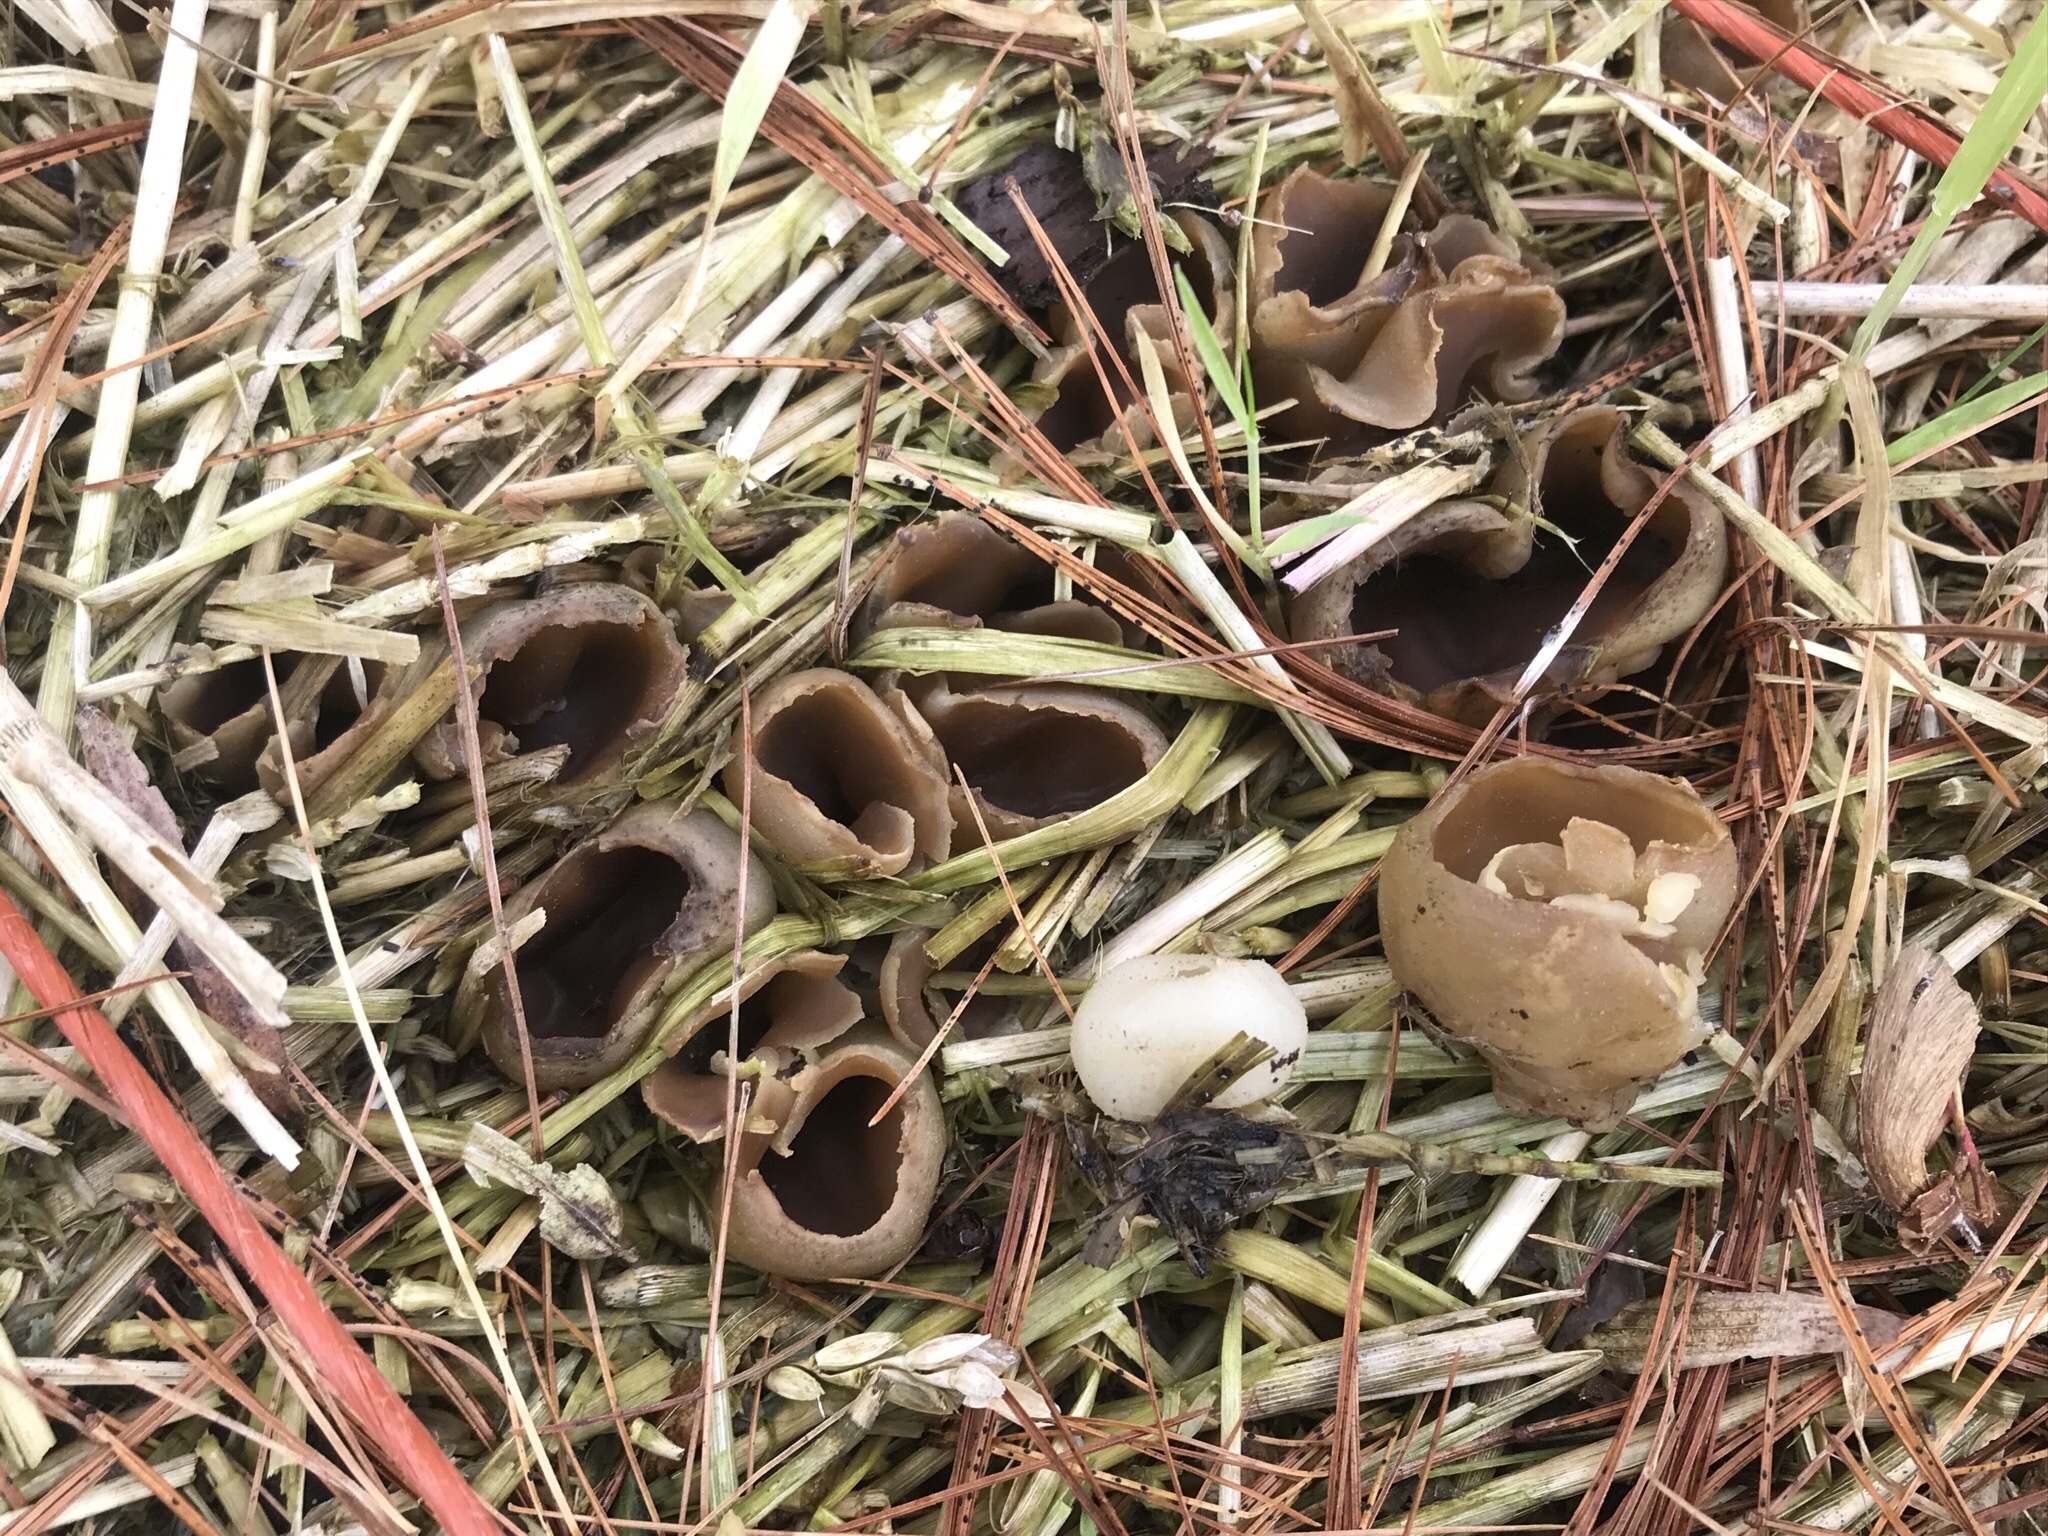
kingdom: Fungi
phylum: Ascomycota
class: Pezizomycetes
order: Pezizales
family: Pezizaceae
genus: Peziza
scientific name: Peziza vesiculosa
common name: Blistered cup
